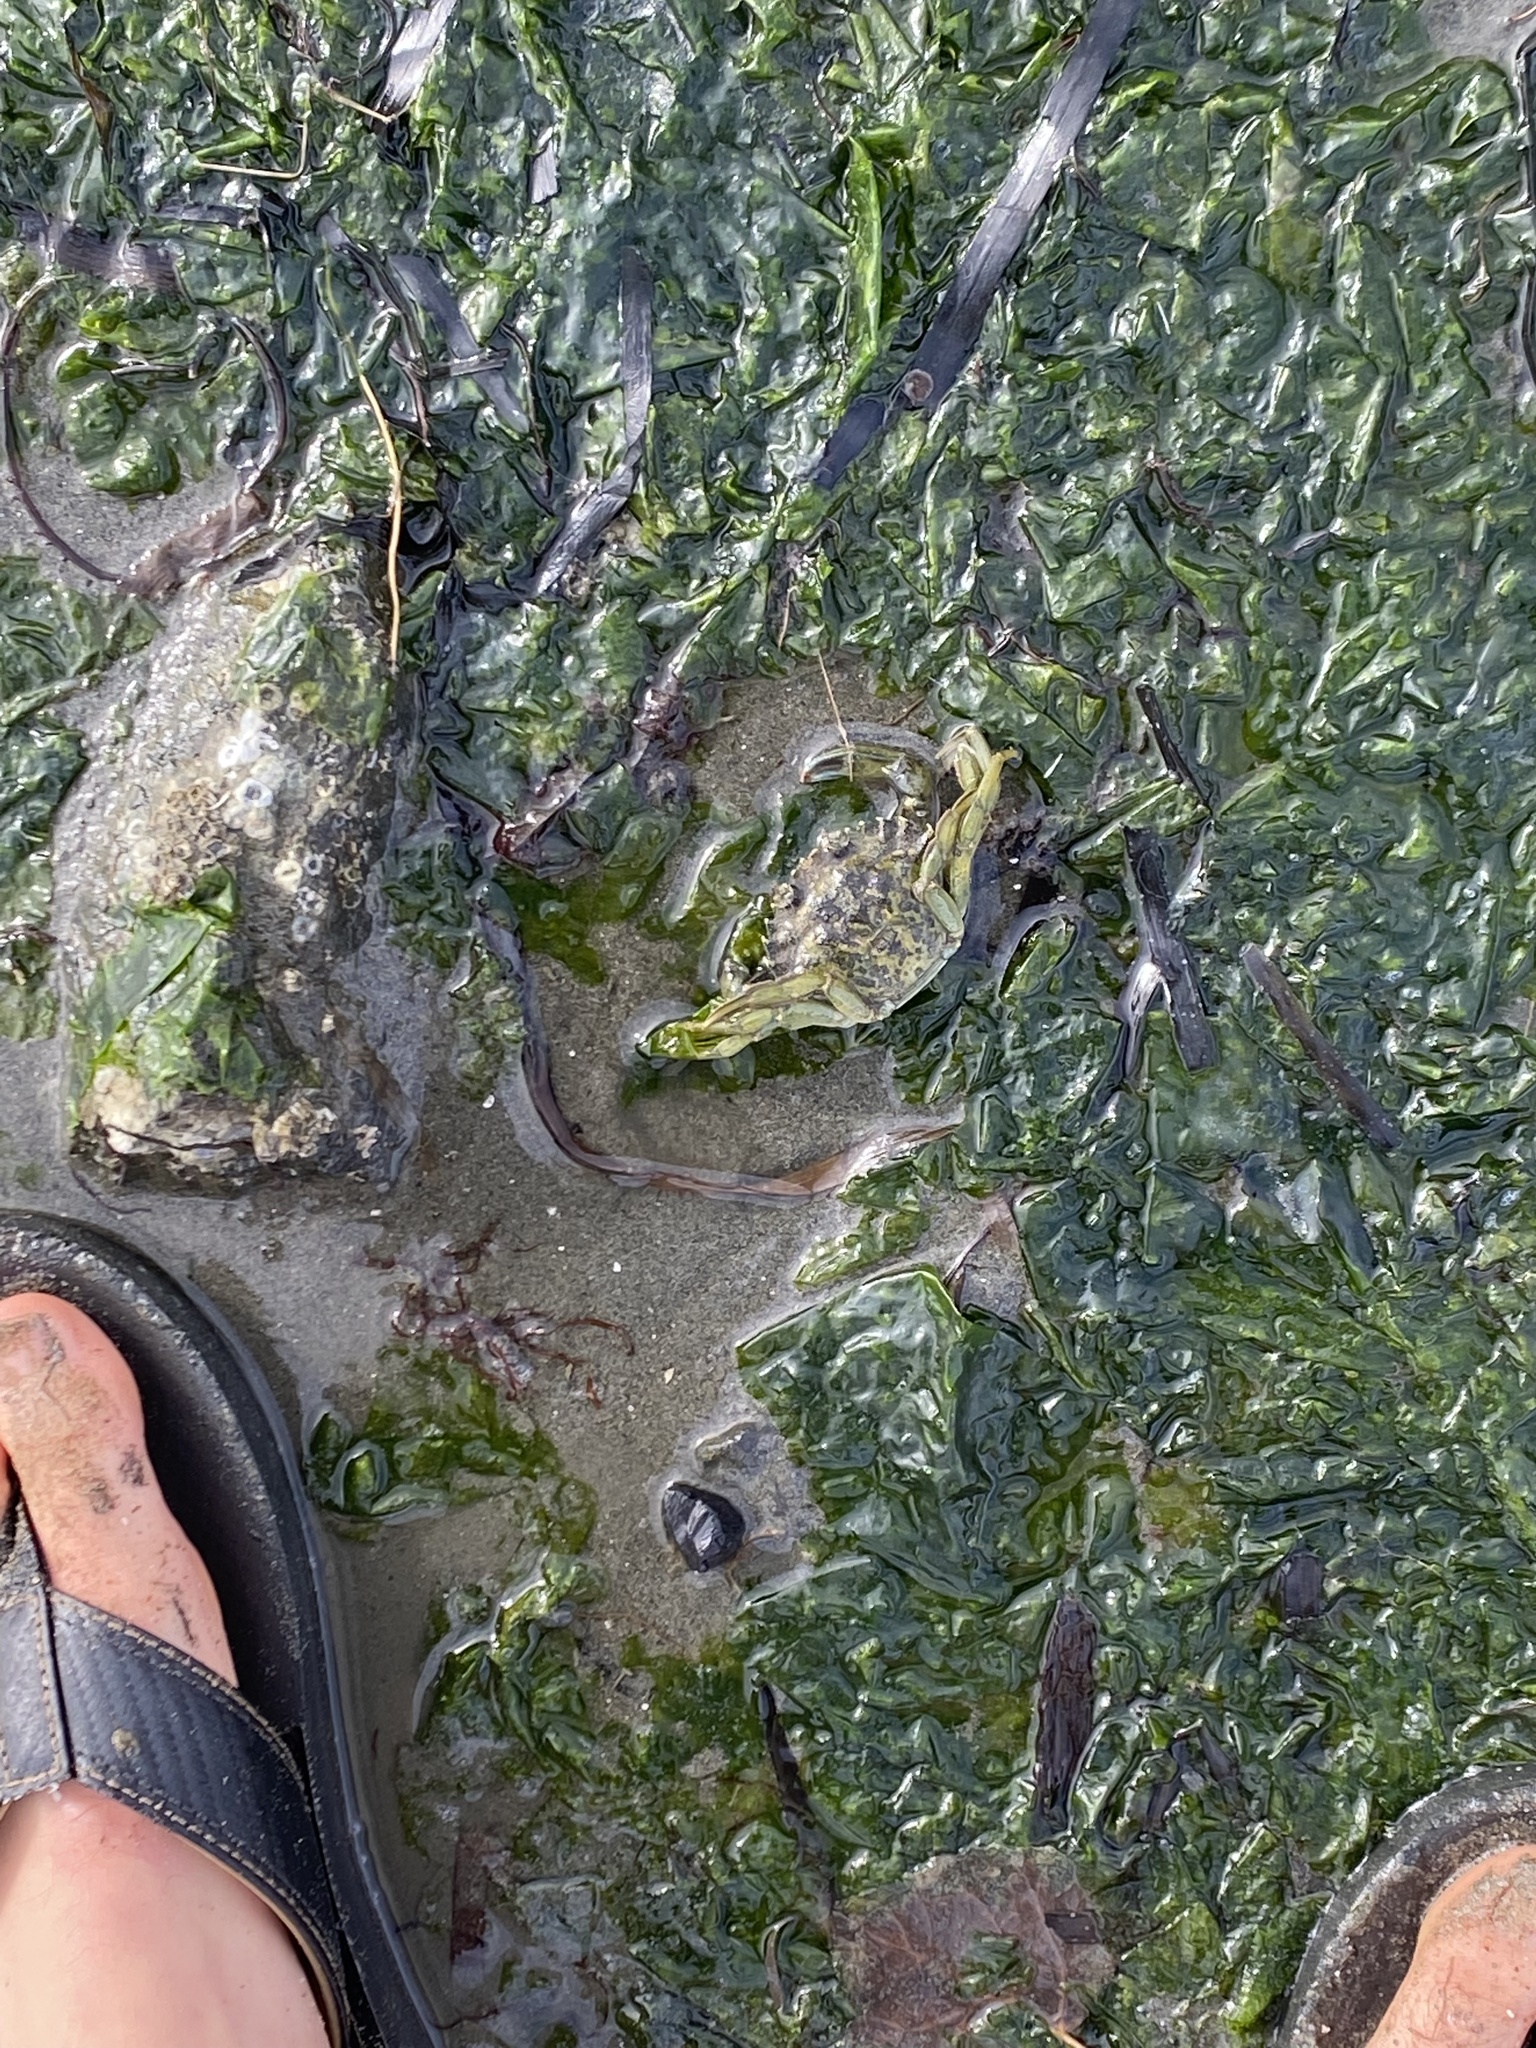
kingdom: Animalia
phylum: Arthropoda
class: Malacostraca
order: Decapoda
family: Carcinidae
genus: Carcinus
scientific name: Carcinus maenas
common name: European green crab
